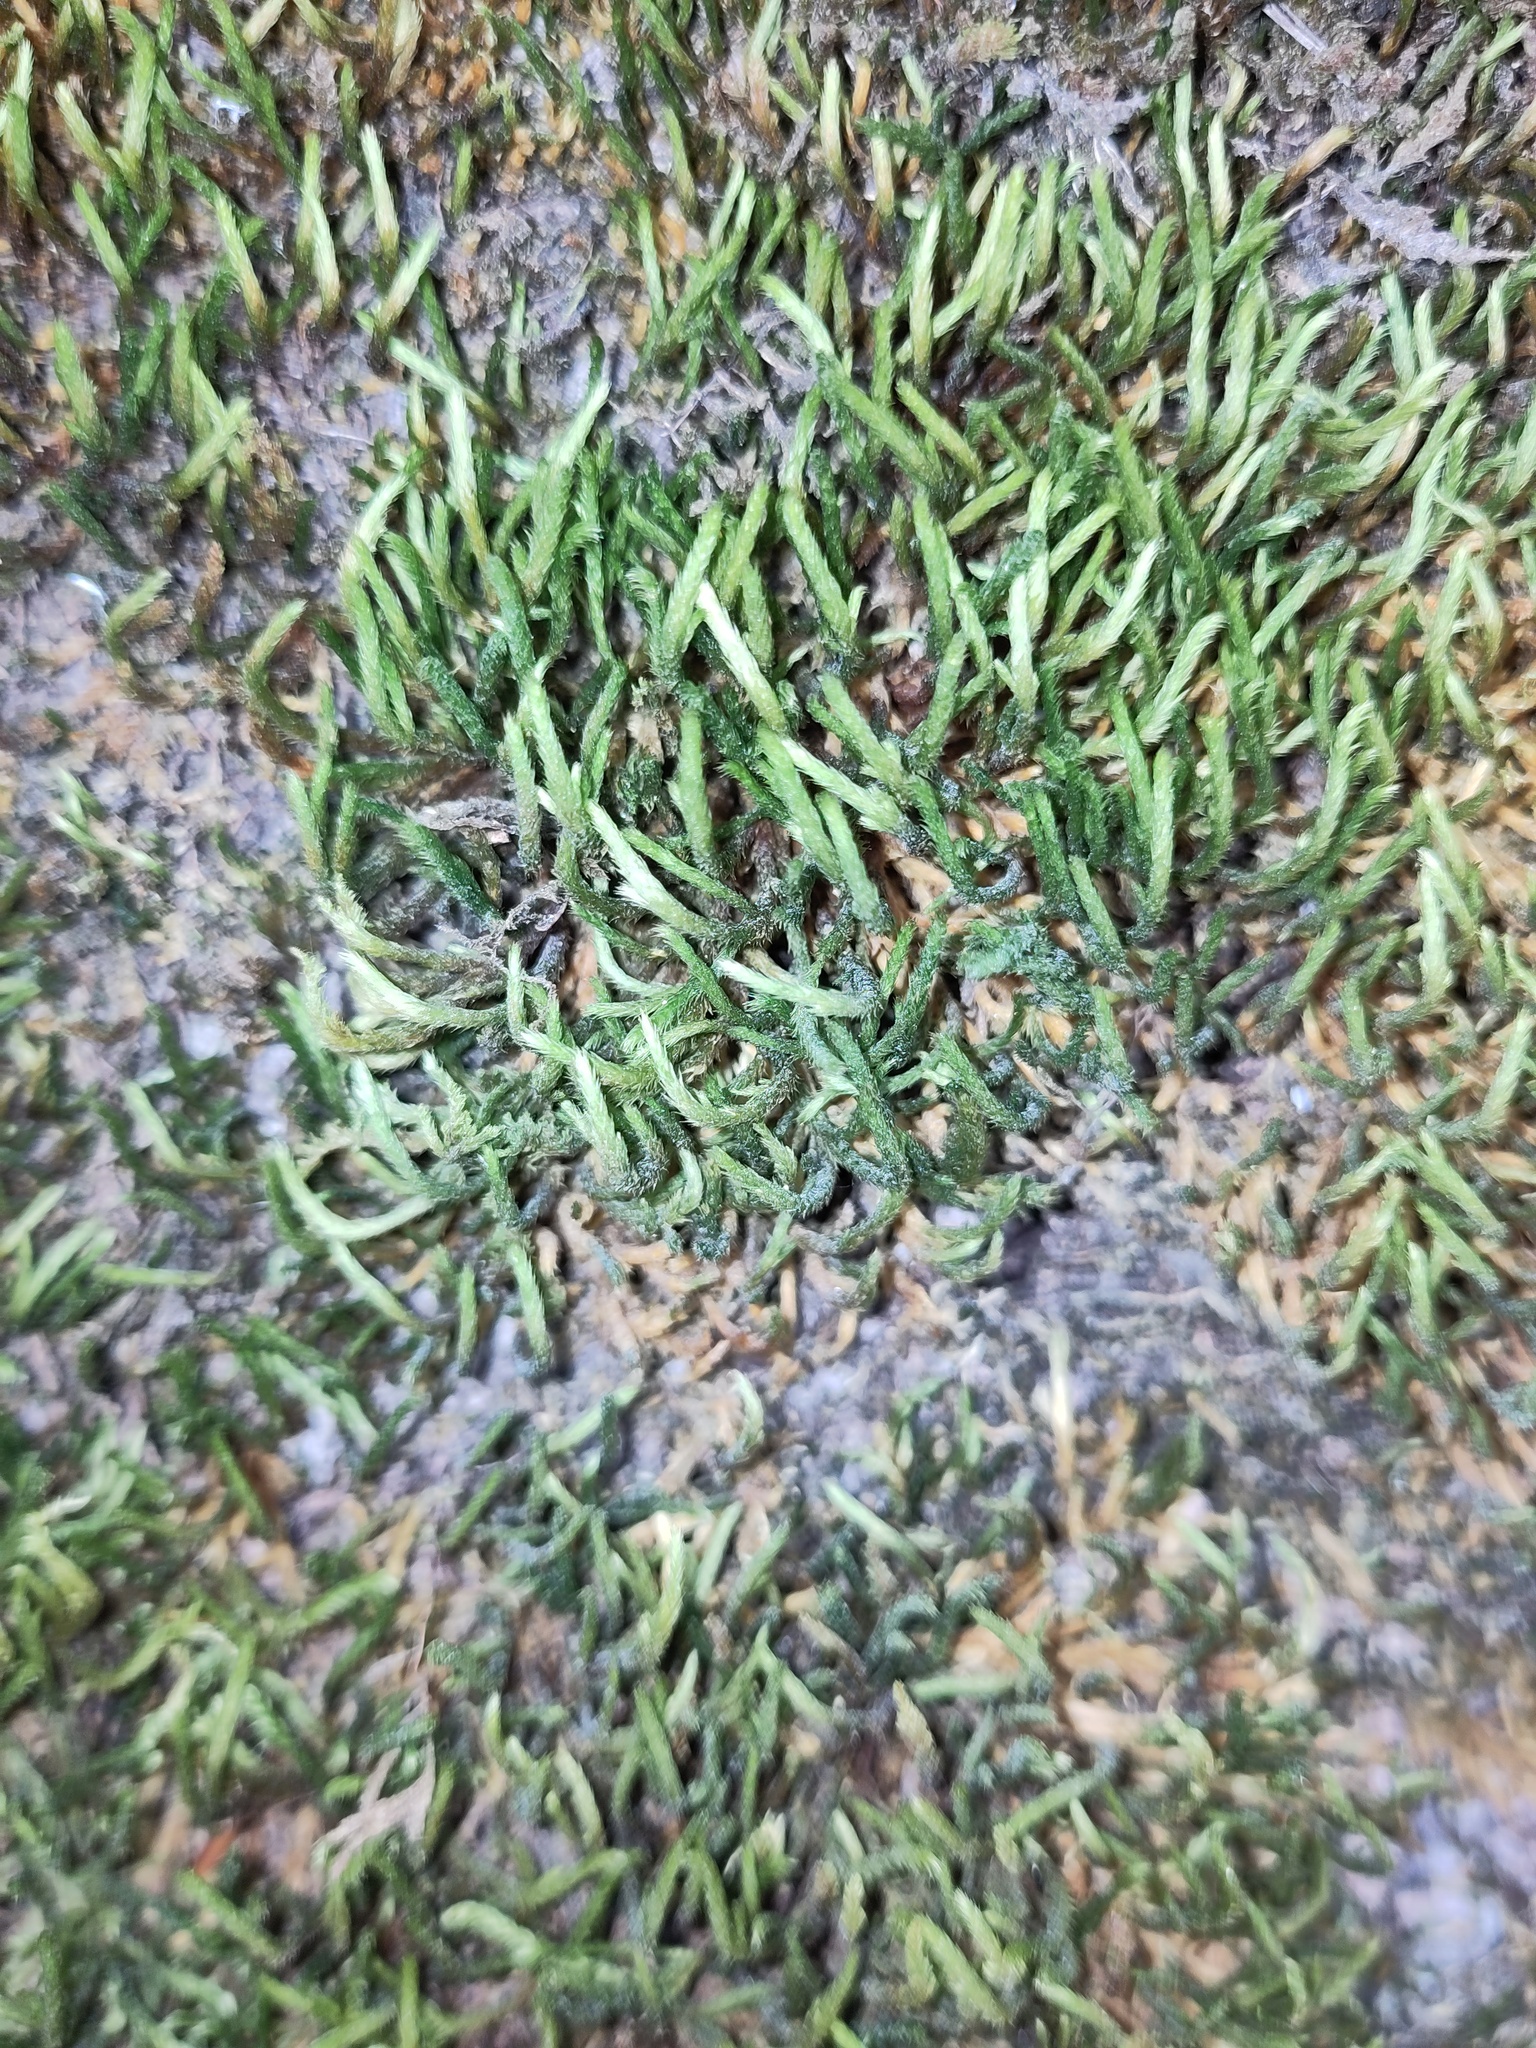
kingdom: Plantae
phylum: Bryophyta
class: Bryopsida
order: Hypnales
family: Leucodontaceae
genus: Leucodon
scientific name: Leucodon sciuroides
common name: Squirrel-tail moss
